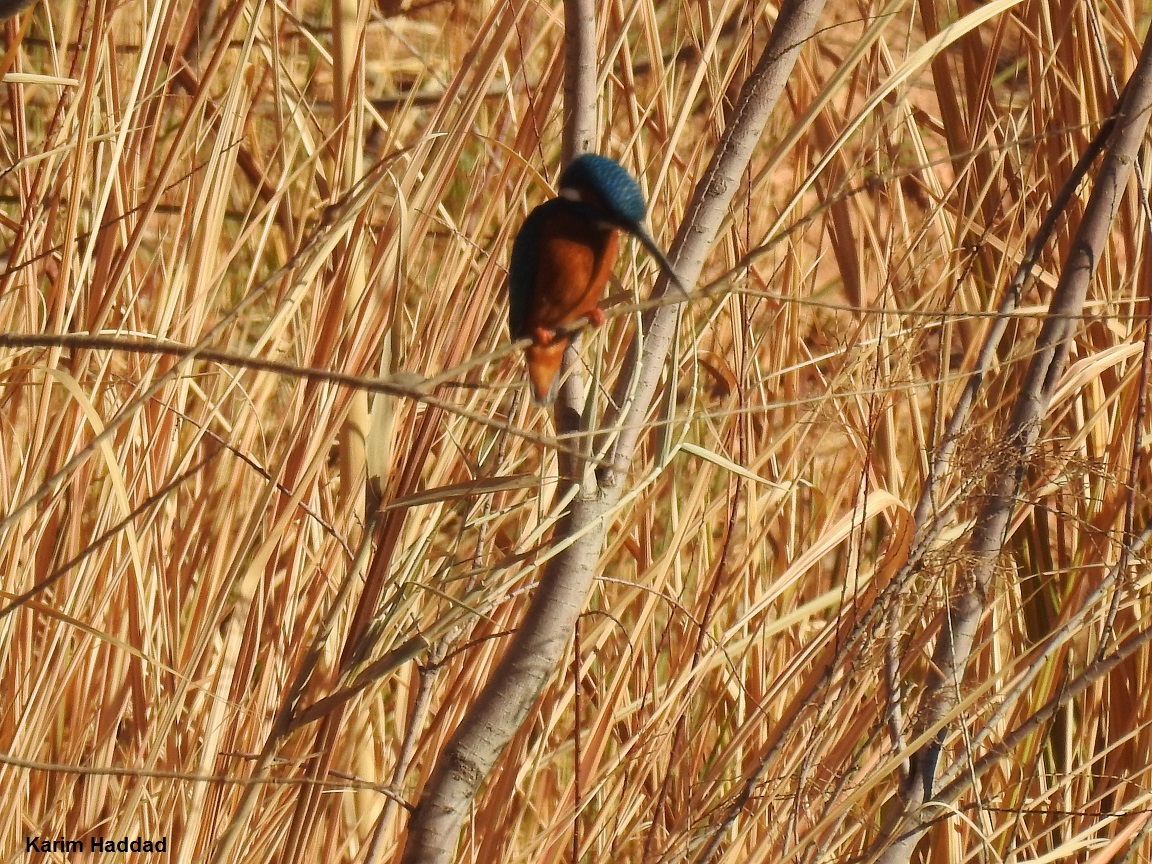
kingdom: Animalia
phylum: Chordata
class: Aves
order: Coraciiformes
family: Alcedinidae
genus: Alcedo
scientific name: Alcedo atthis
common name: Common kingfisher
